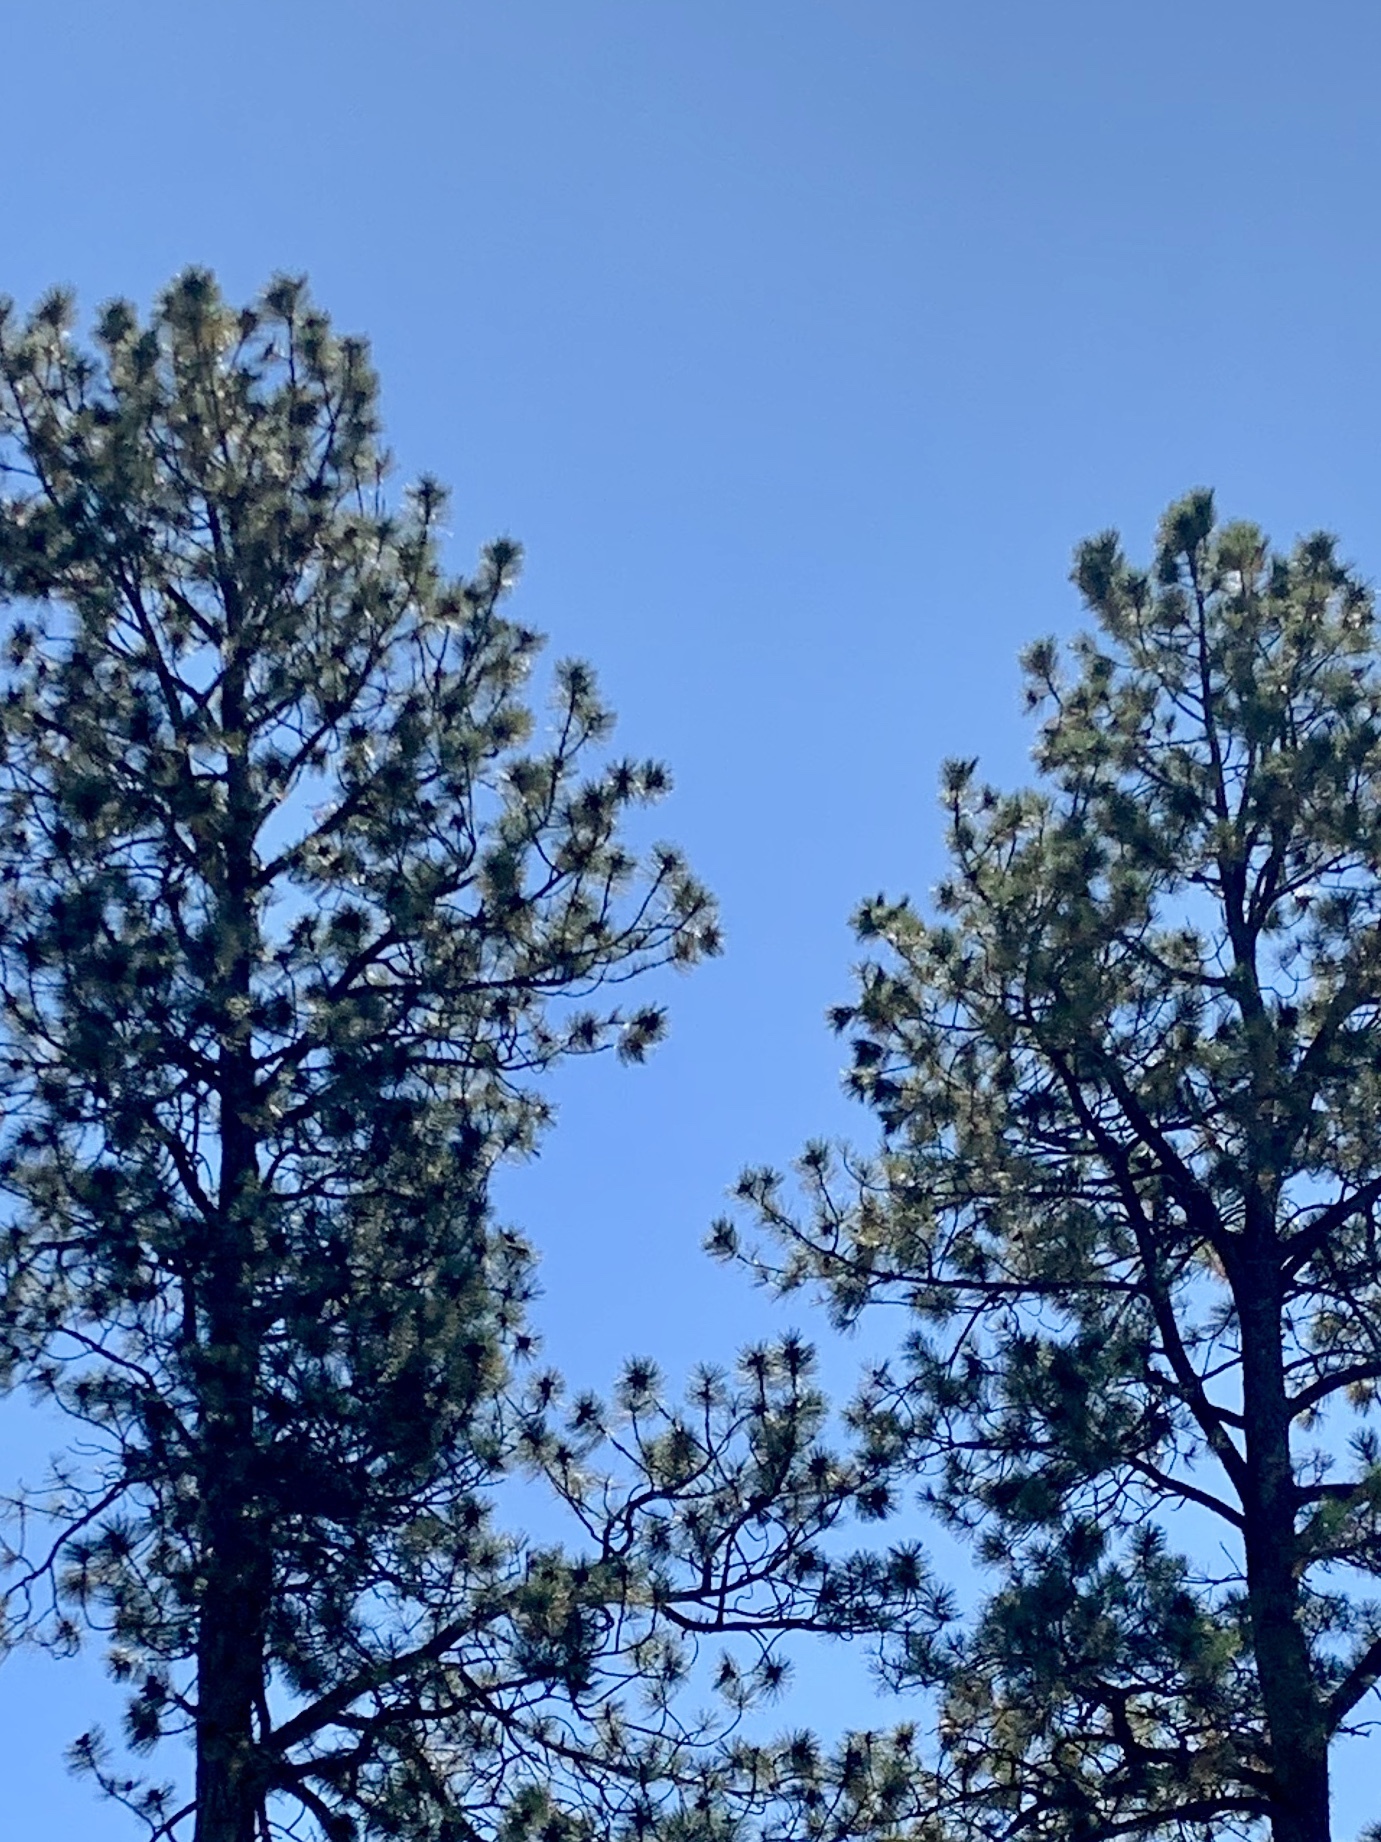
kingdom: Plantae
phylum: Tracheophyta
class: Pinopsida
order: Pinales
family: Pinaceae
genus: Pinus
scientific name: Pinus ponderosa
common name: Western yellow-pine
